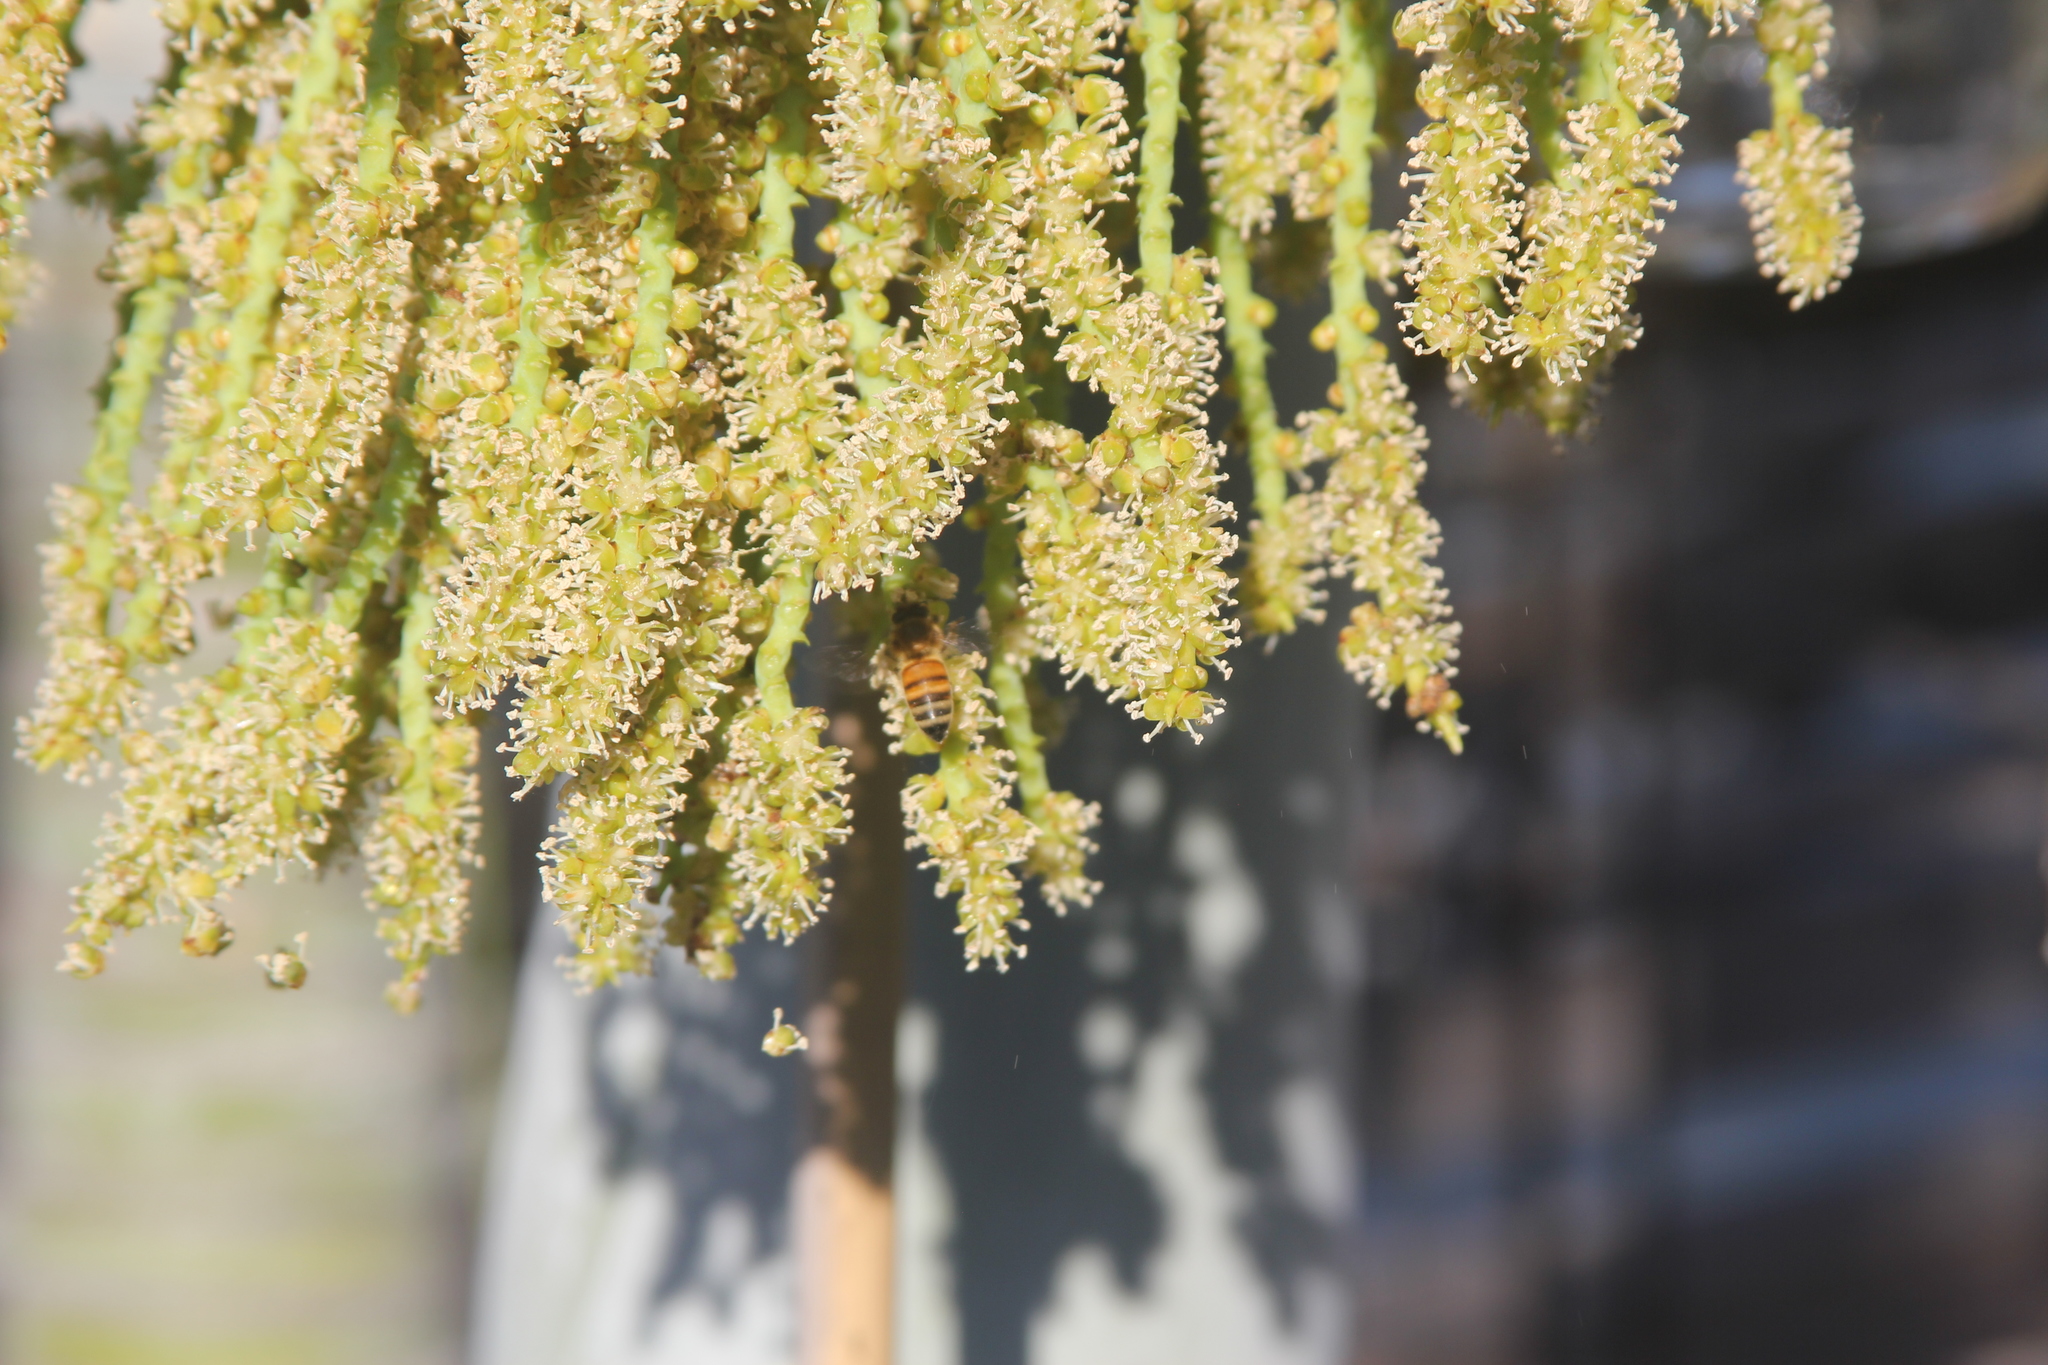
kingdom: Animalia
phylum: Arthropoda
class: Insecta
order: Hymenoptera
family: Apidae
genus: Apis
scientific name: Apis mellifera
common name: Honey bee
